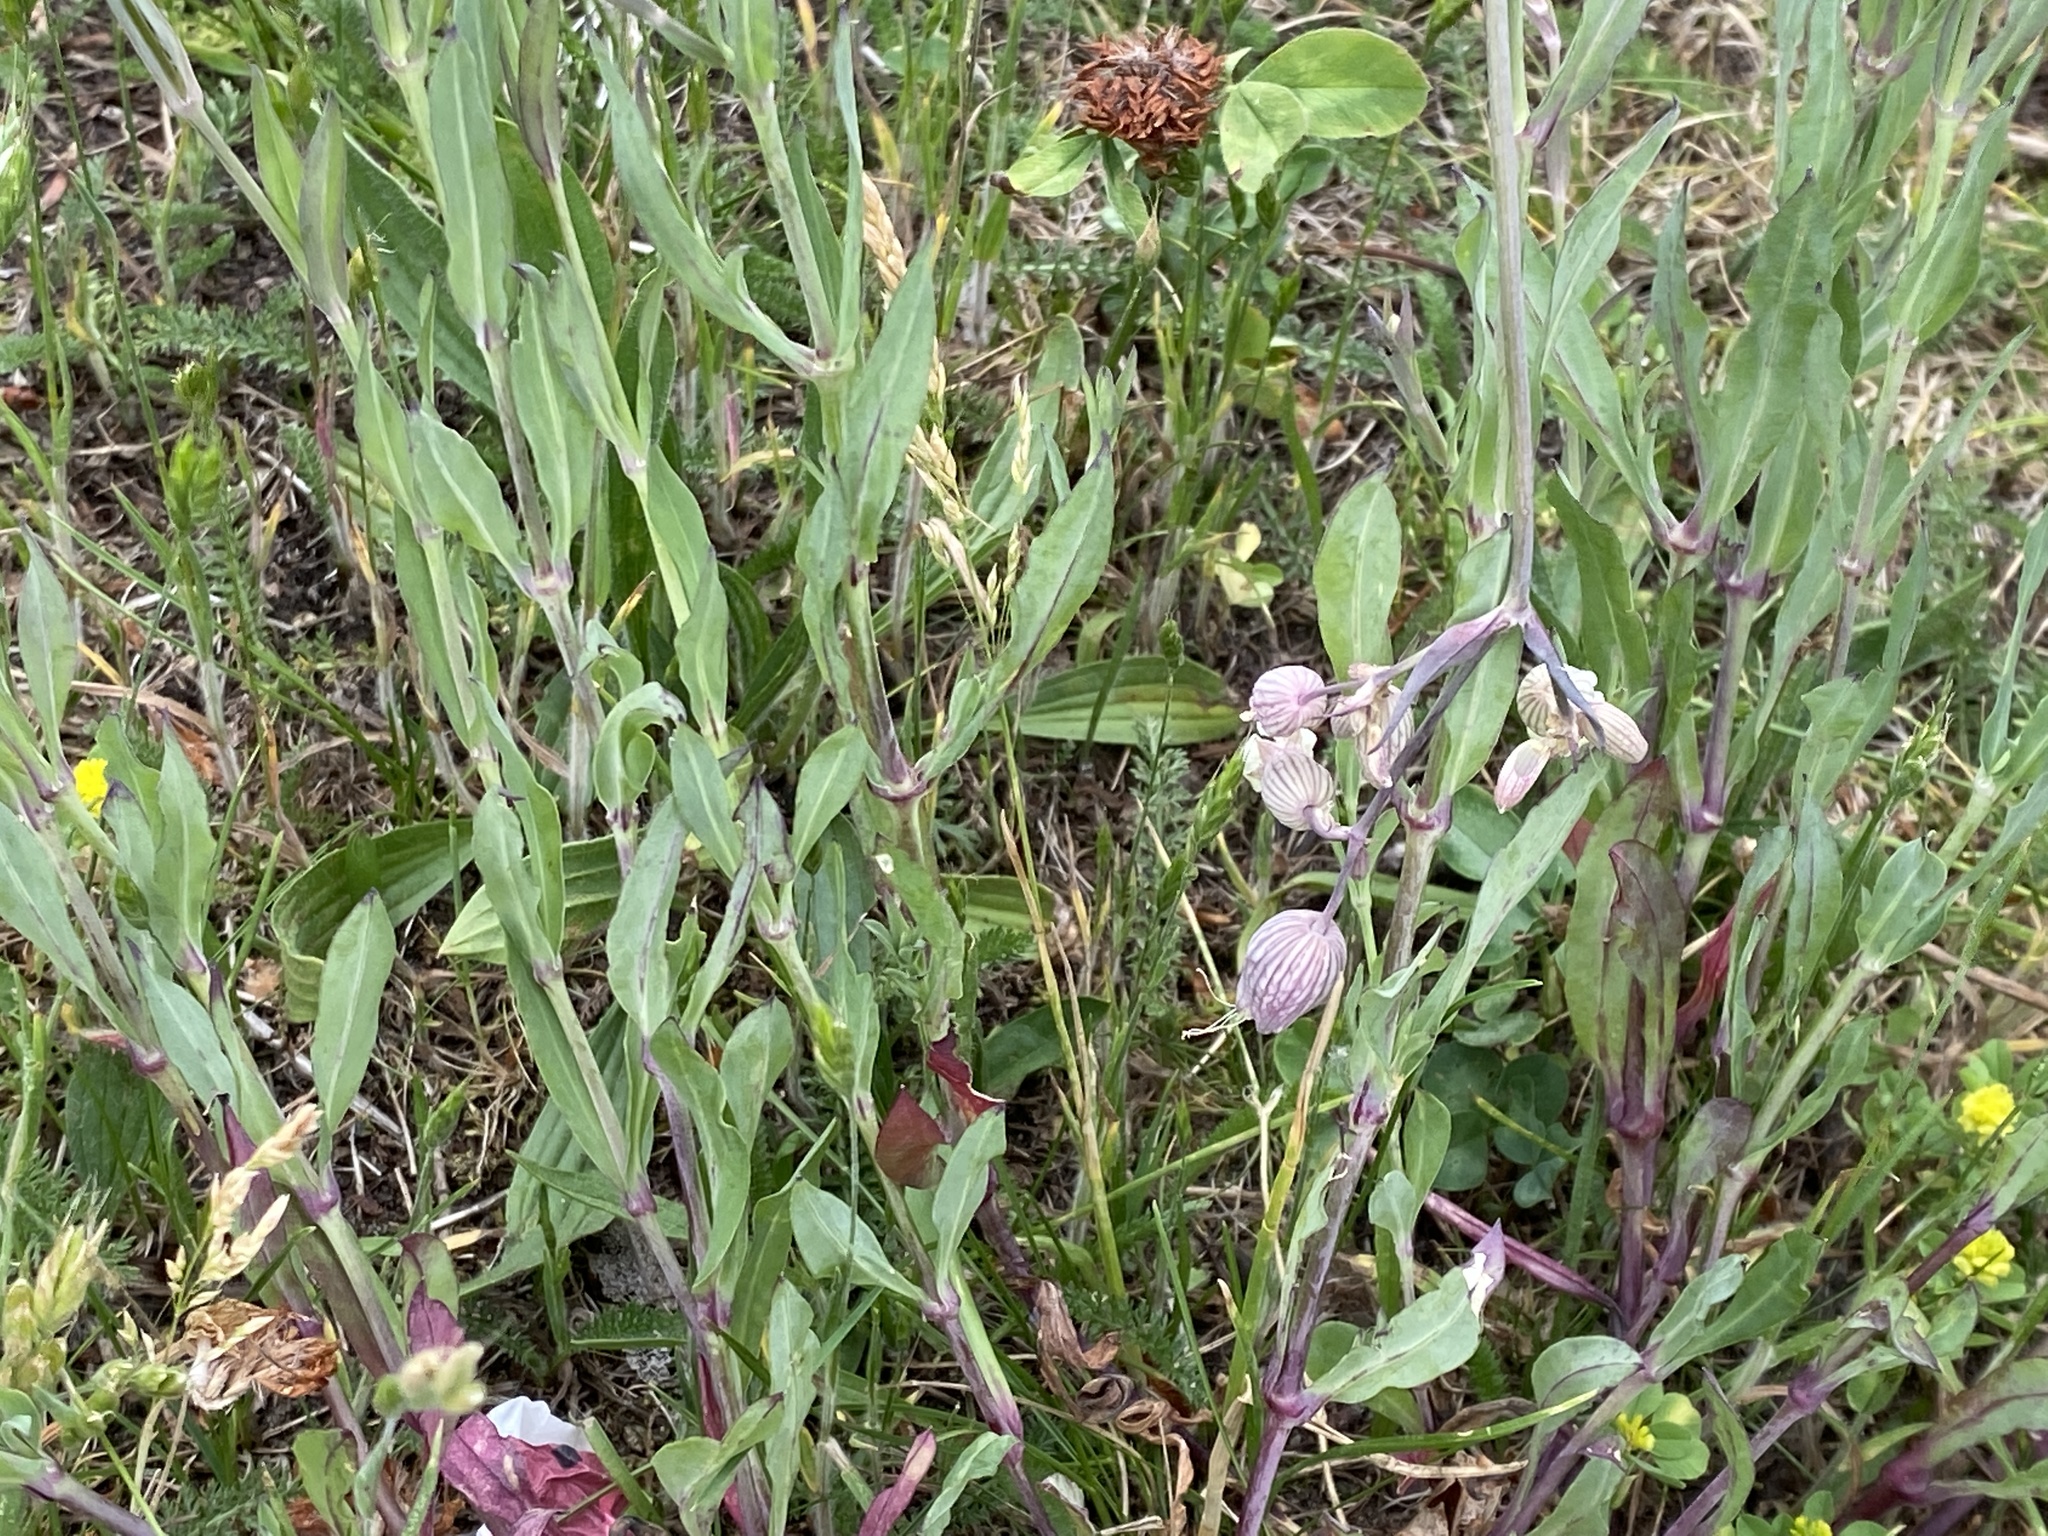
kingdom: Plantae
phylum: Tracheophyta
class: Magnoliopsida
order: Caryophyllales
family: Caryophyllaceae
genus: Silene
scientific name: Silene vulgaris
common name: Bladder campion
